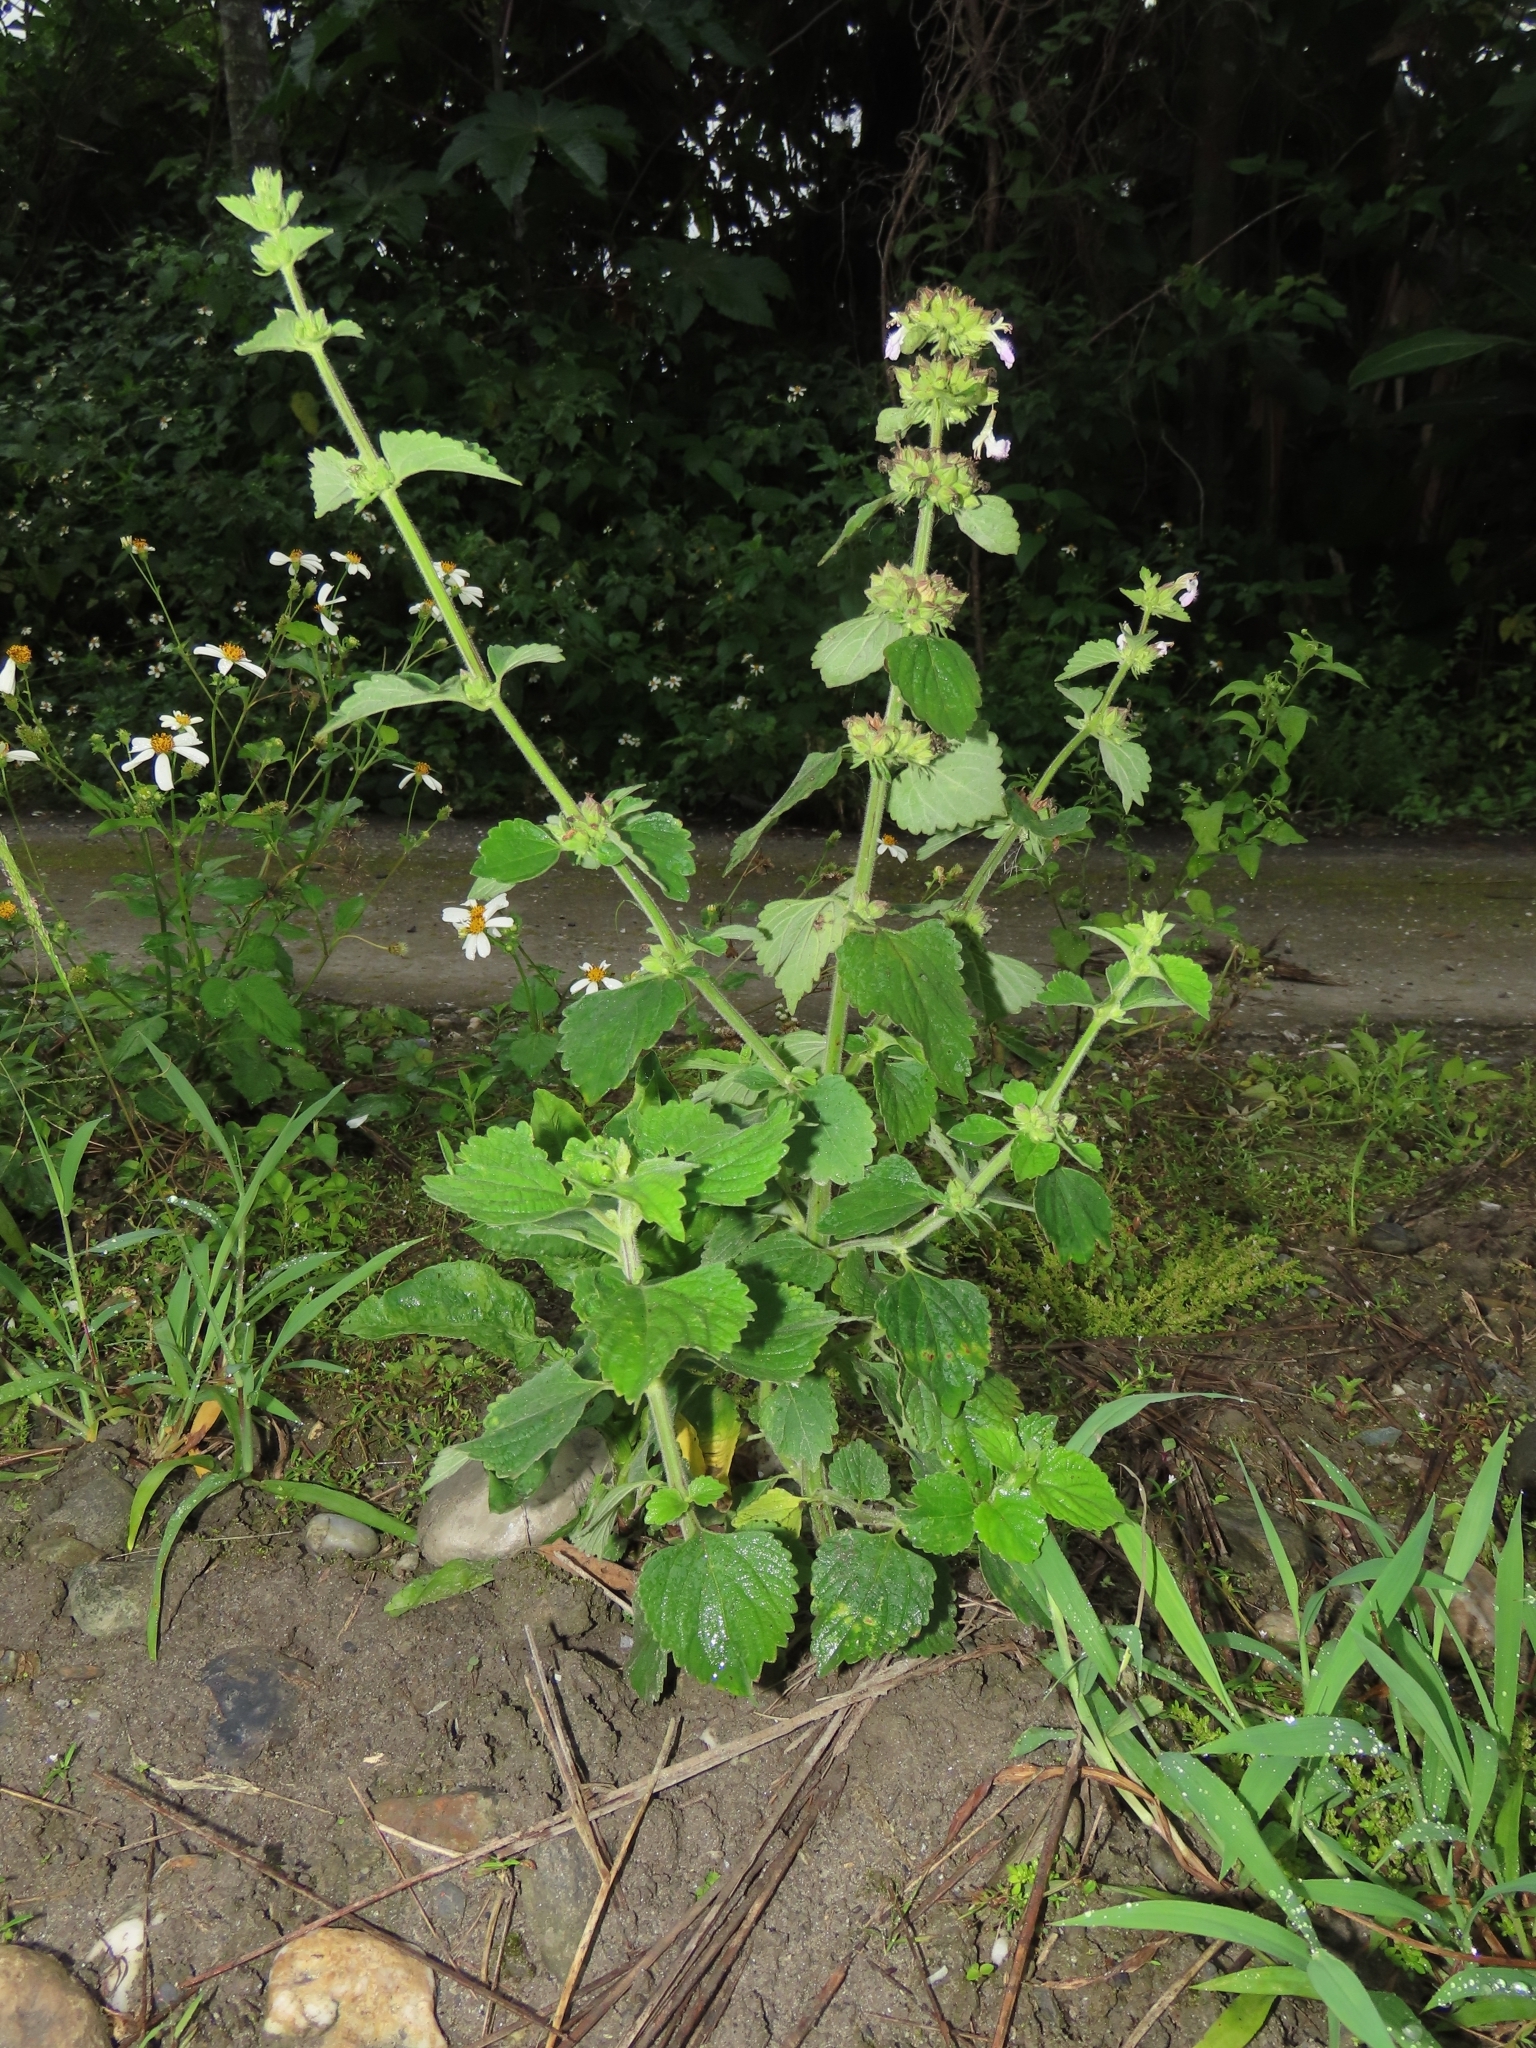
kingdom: Plantae
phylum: Tracheophyta
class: Magnoliopsida
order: Lamiales
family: Lamiaceae
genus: Anisomeles
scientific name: Anisomeles indica
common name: Catmint
